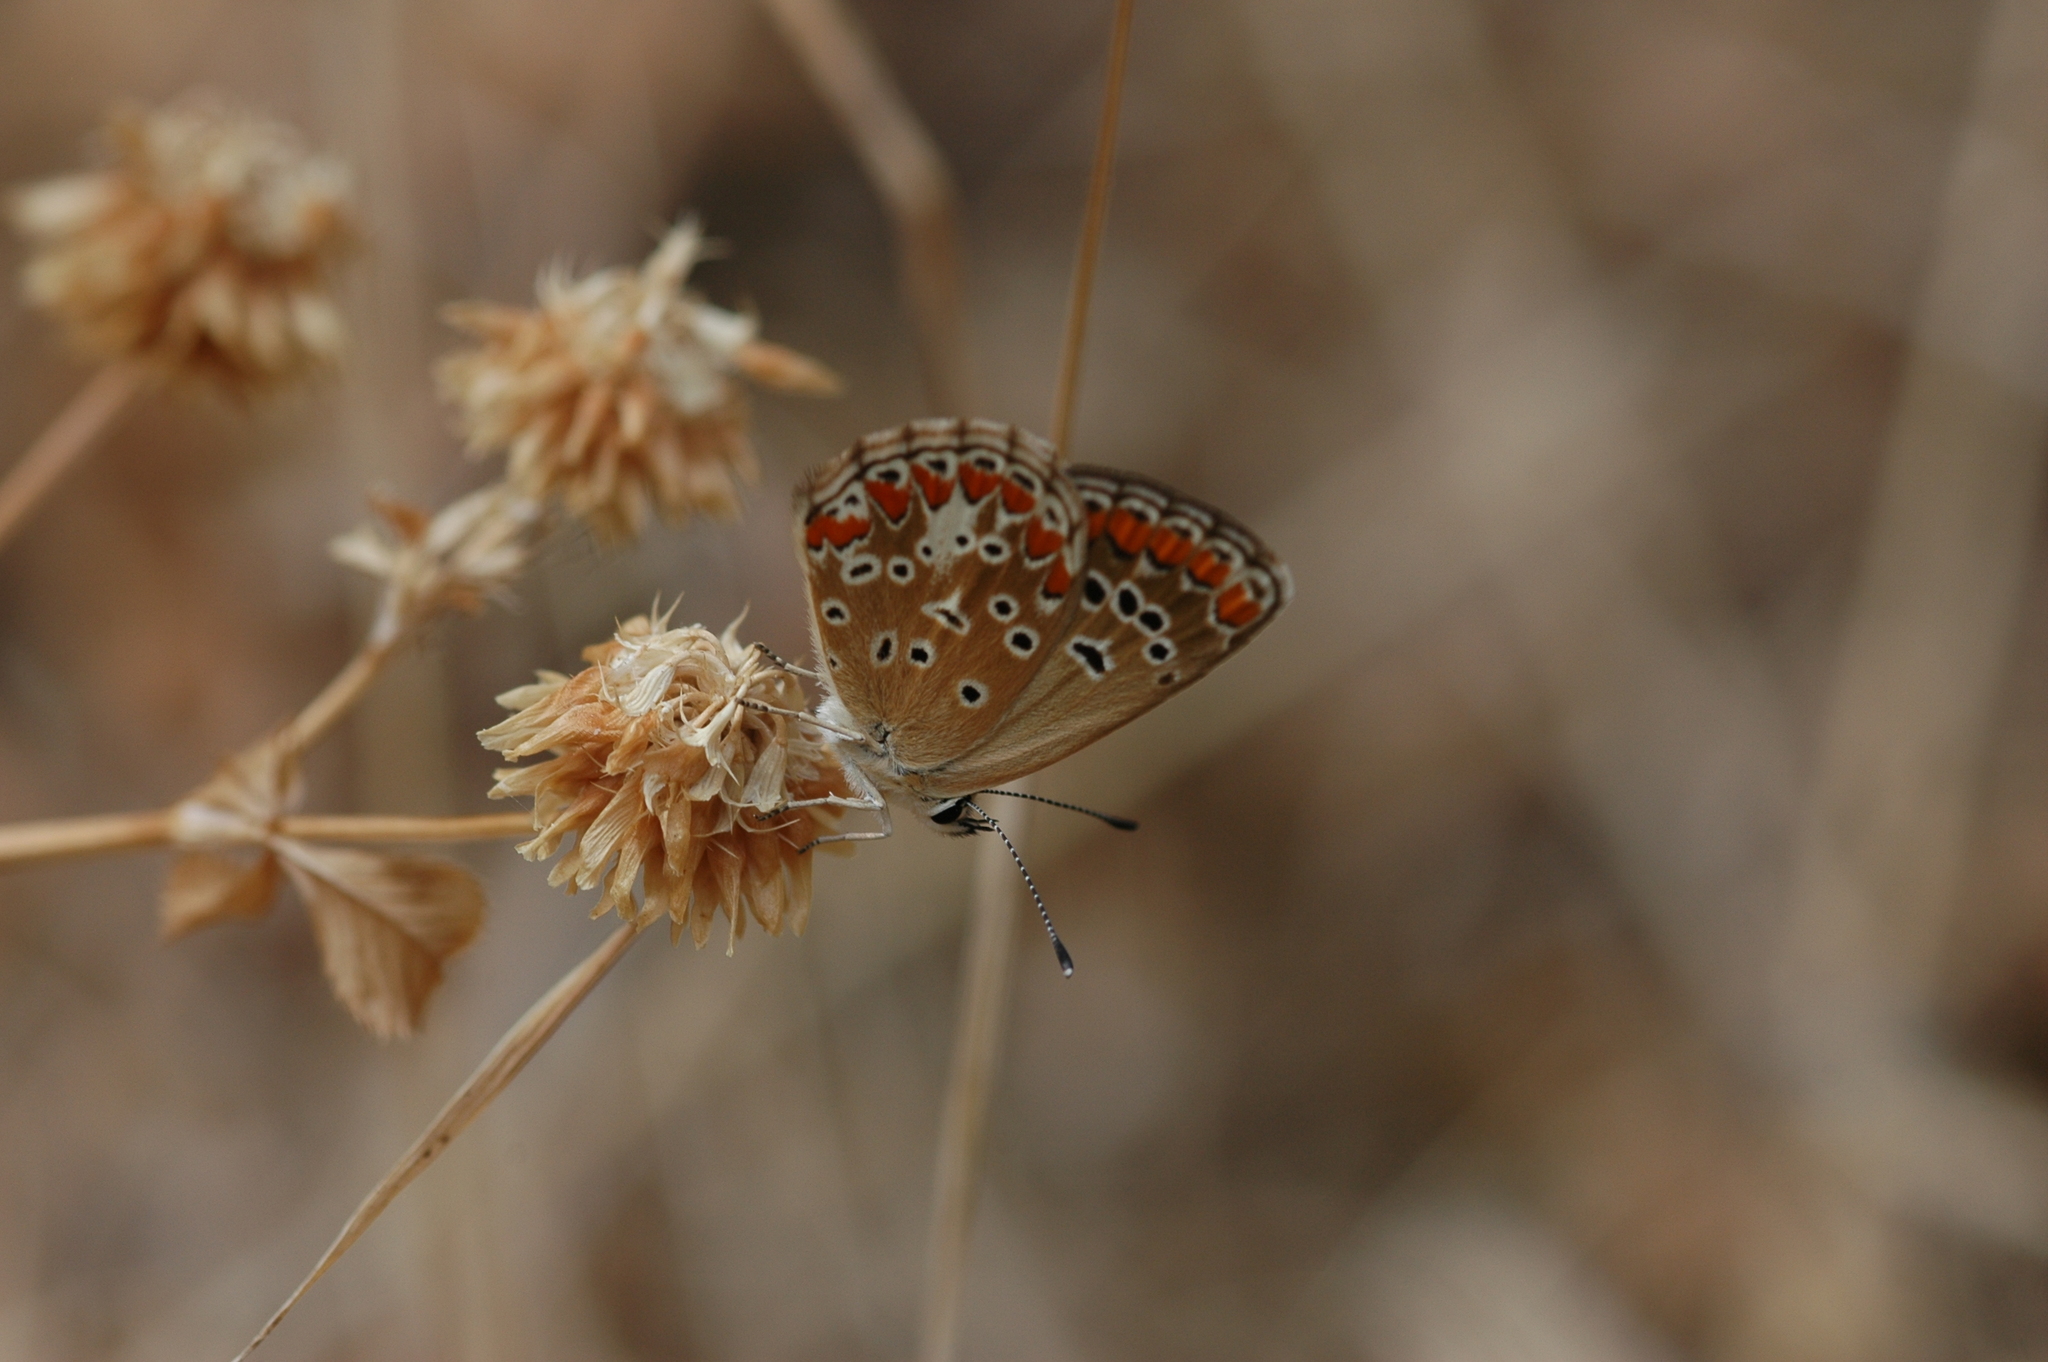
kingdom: Animalia
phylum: Arthropoda
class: Insecta
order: Lepidoptera
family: Lycaenidae
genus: Aricia
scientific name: Aricia agestis
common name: Brown argus
